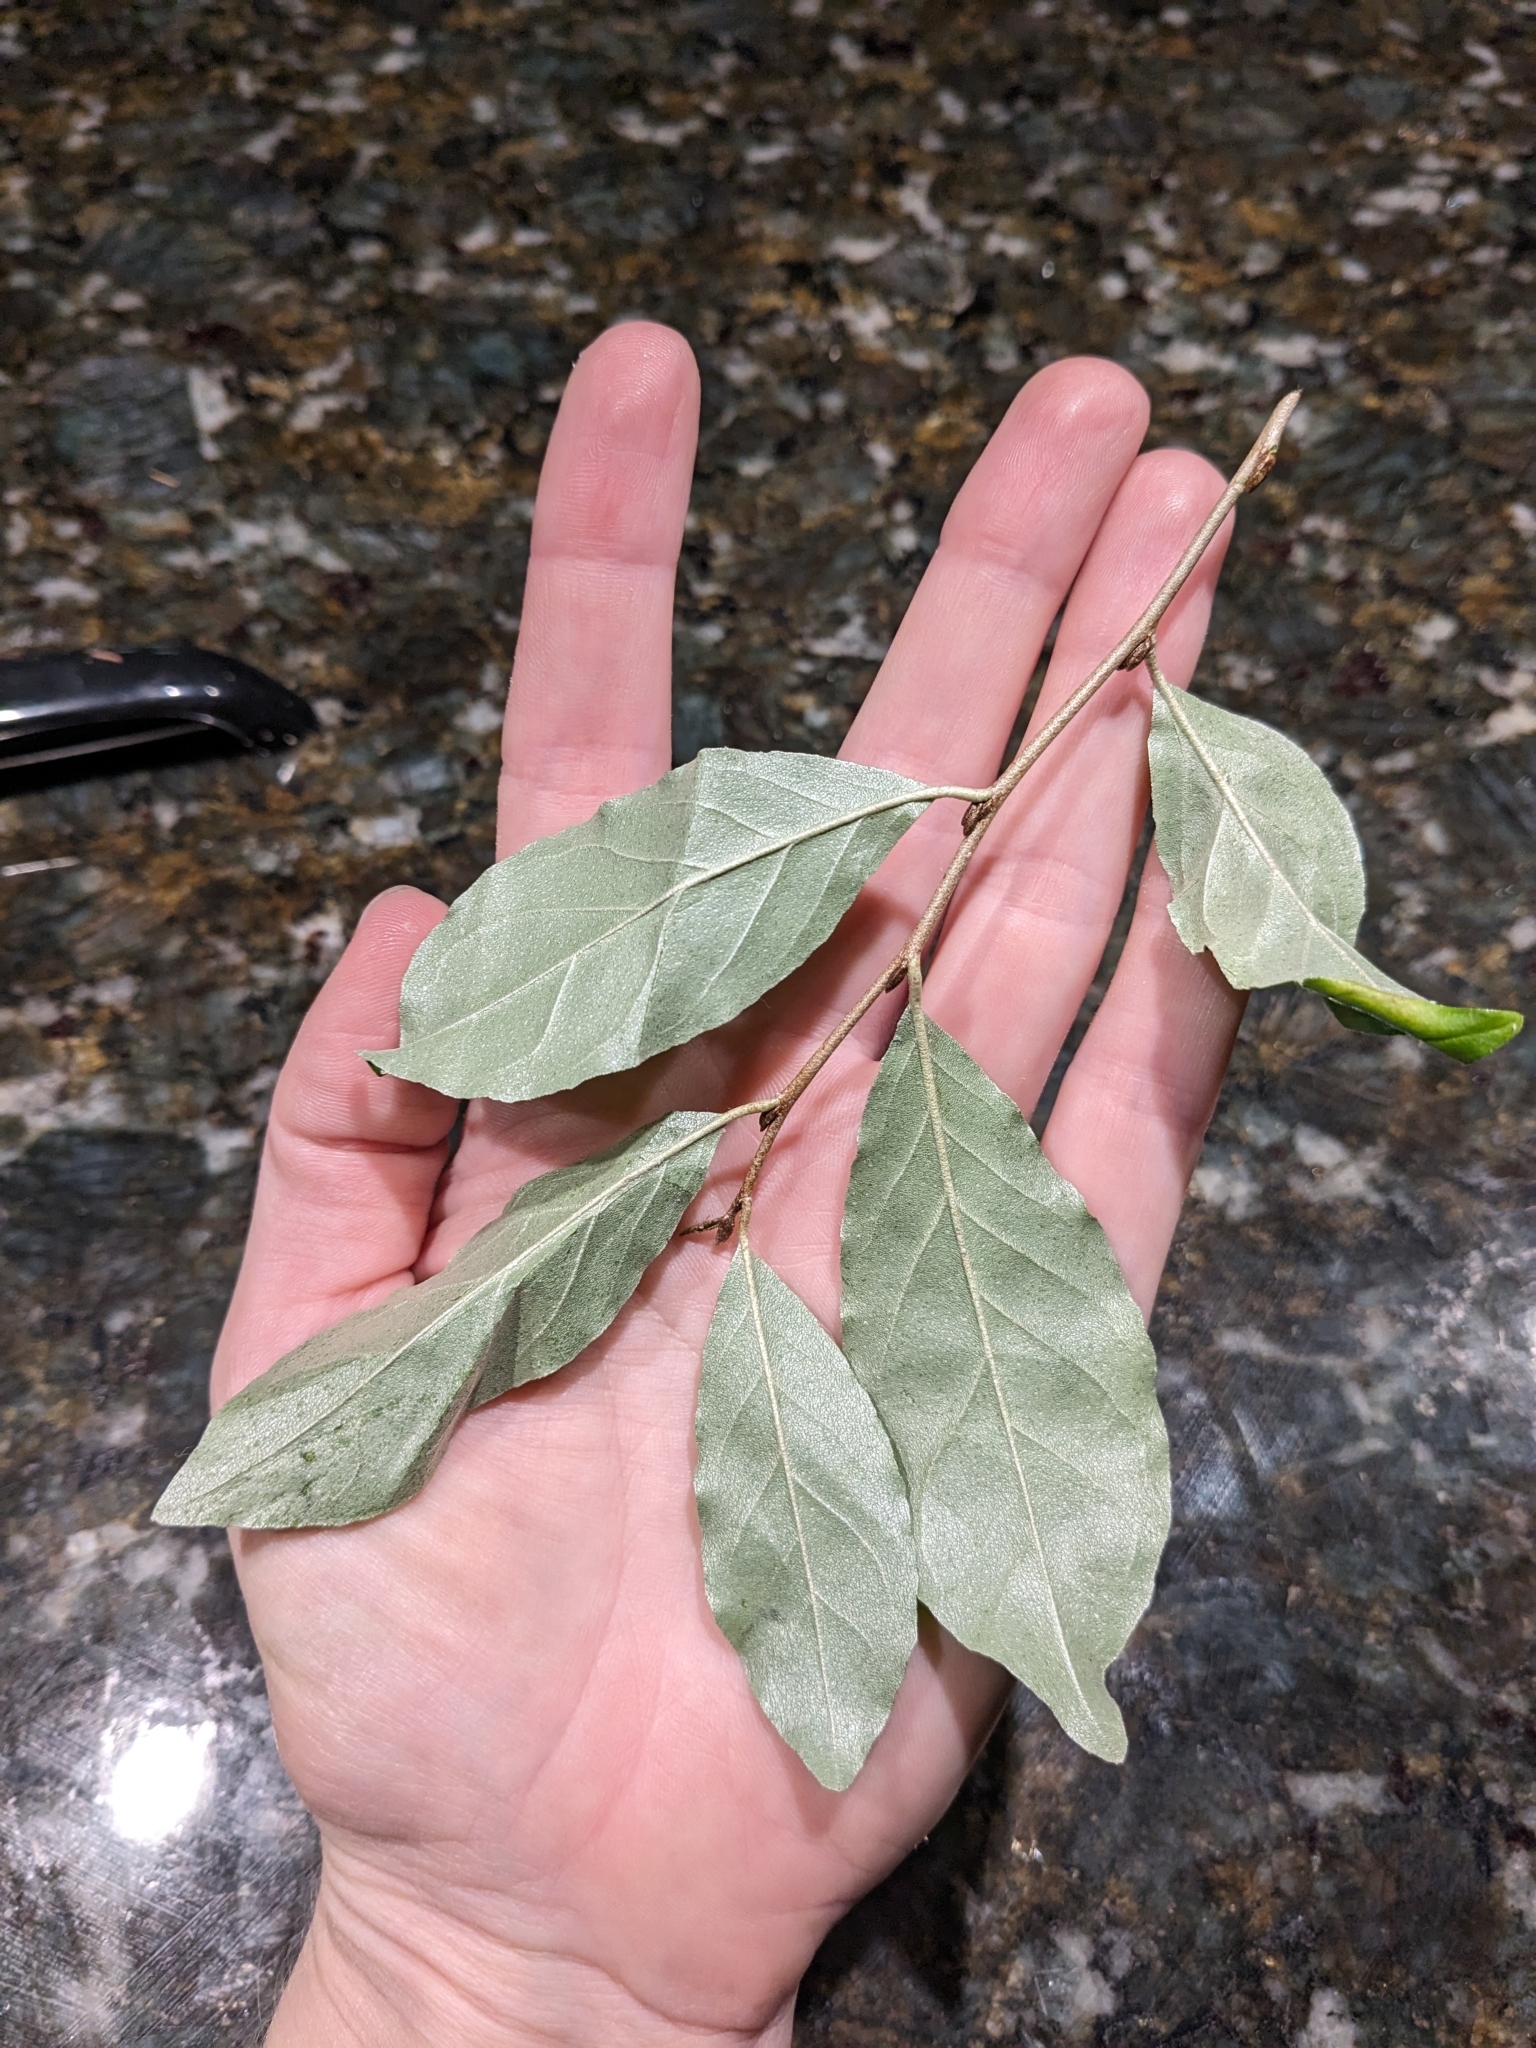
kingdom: Plantae
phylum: Tracheophyta
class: Magnoliopsida
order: Rosales
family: Elaeagnaceae
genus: Elaeagnus
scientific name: Elaeagnus umbellata
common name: Autumn olive
